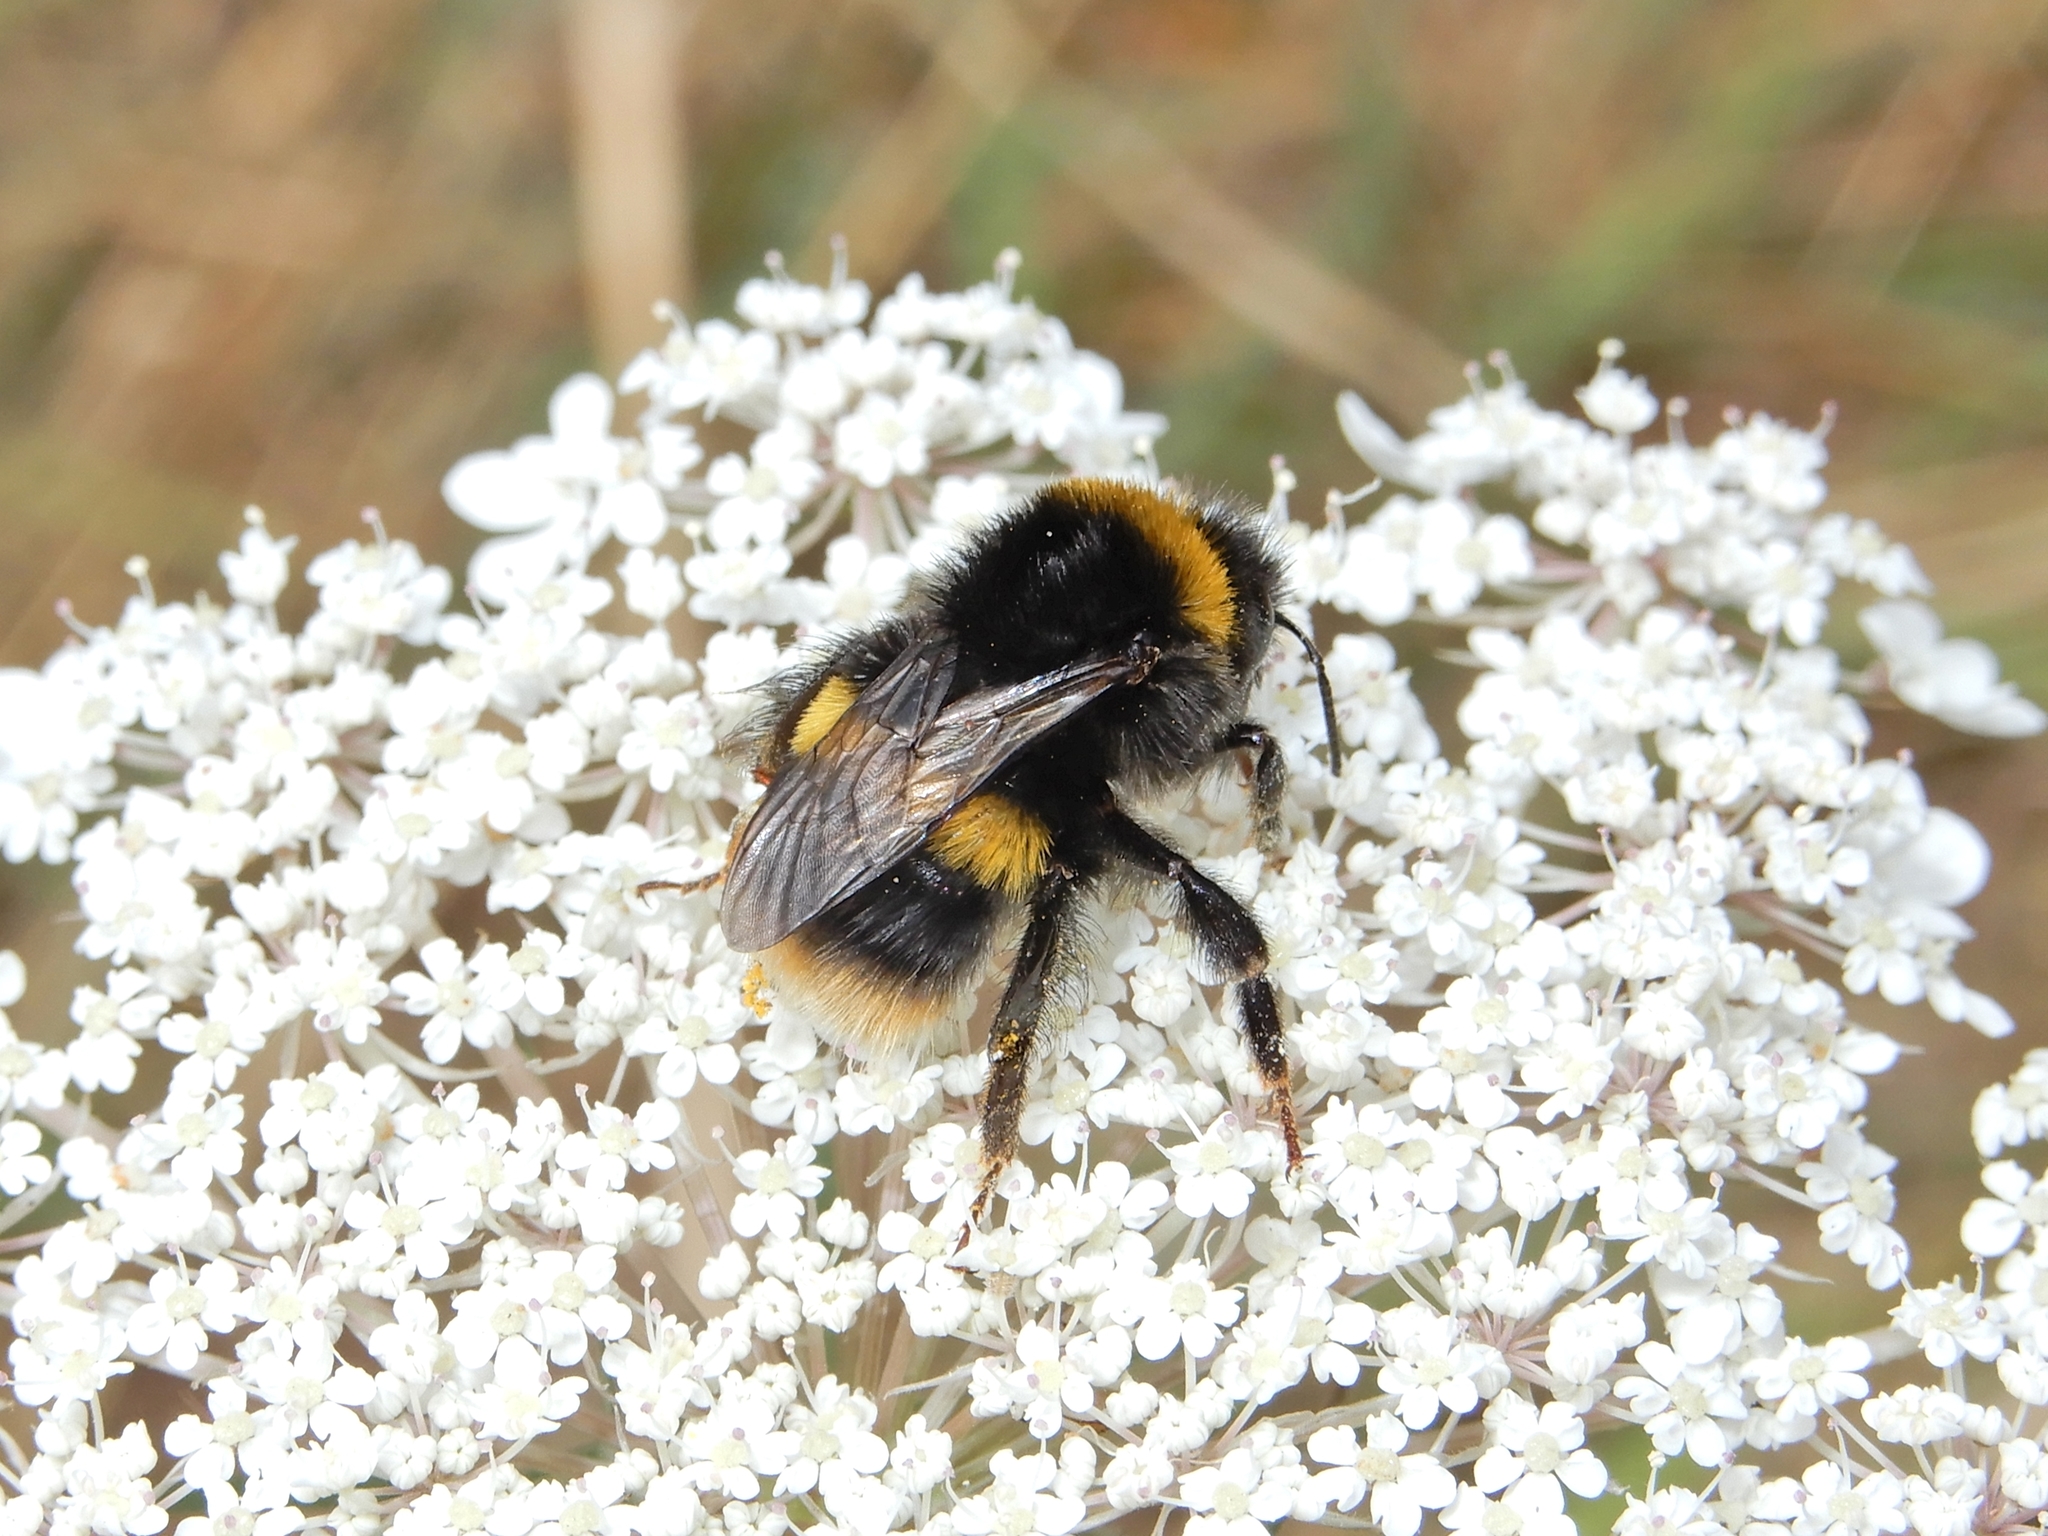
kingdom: Animalia
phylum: Arthropoda
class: Insecta
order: Hymenoptera
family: Apidae
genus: Bombus
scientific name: Bombus terrestris
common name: Buff-tailed bumblebee
